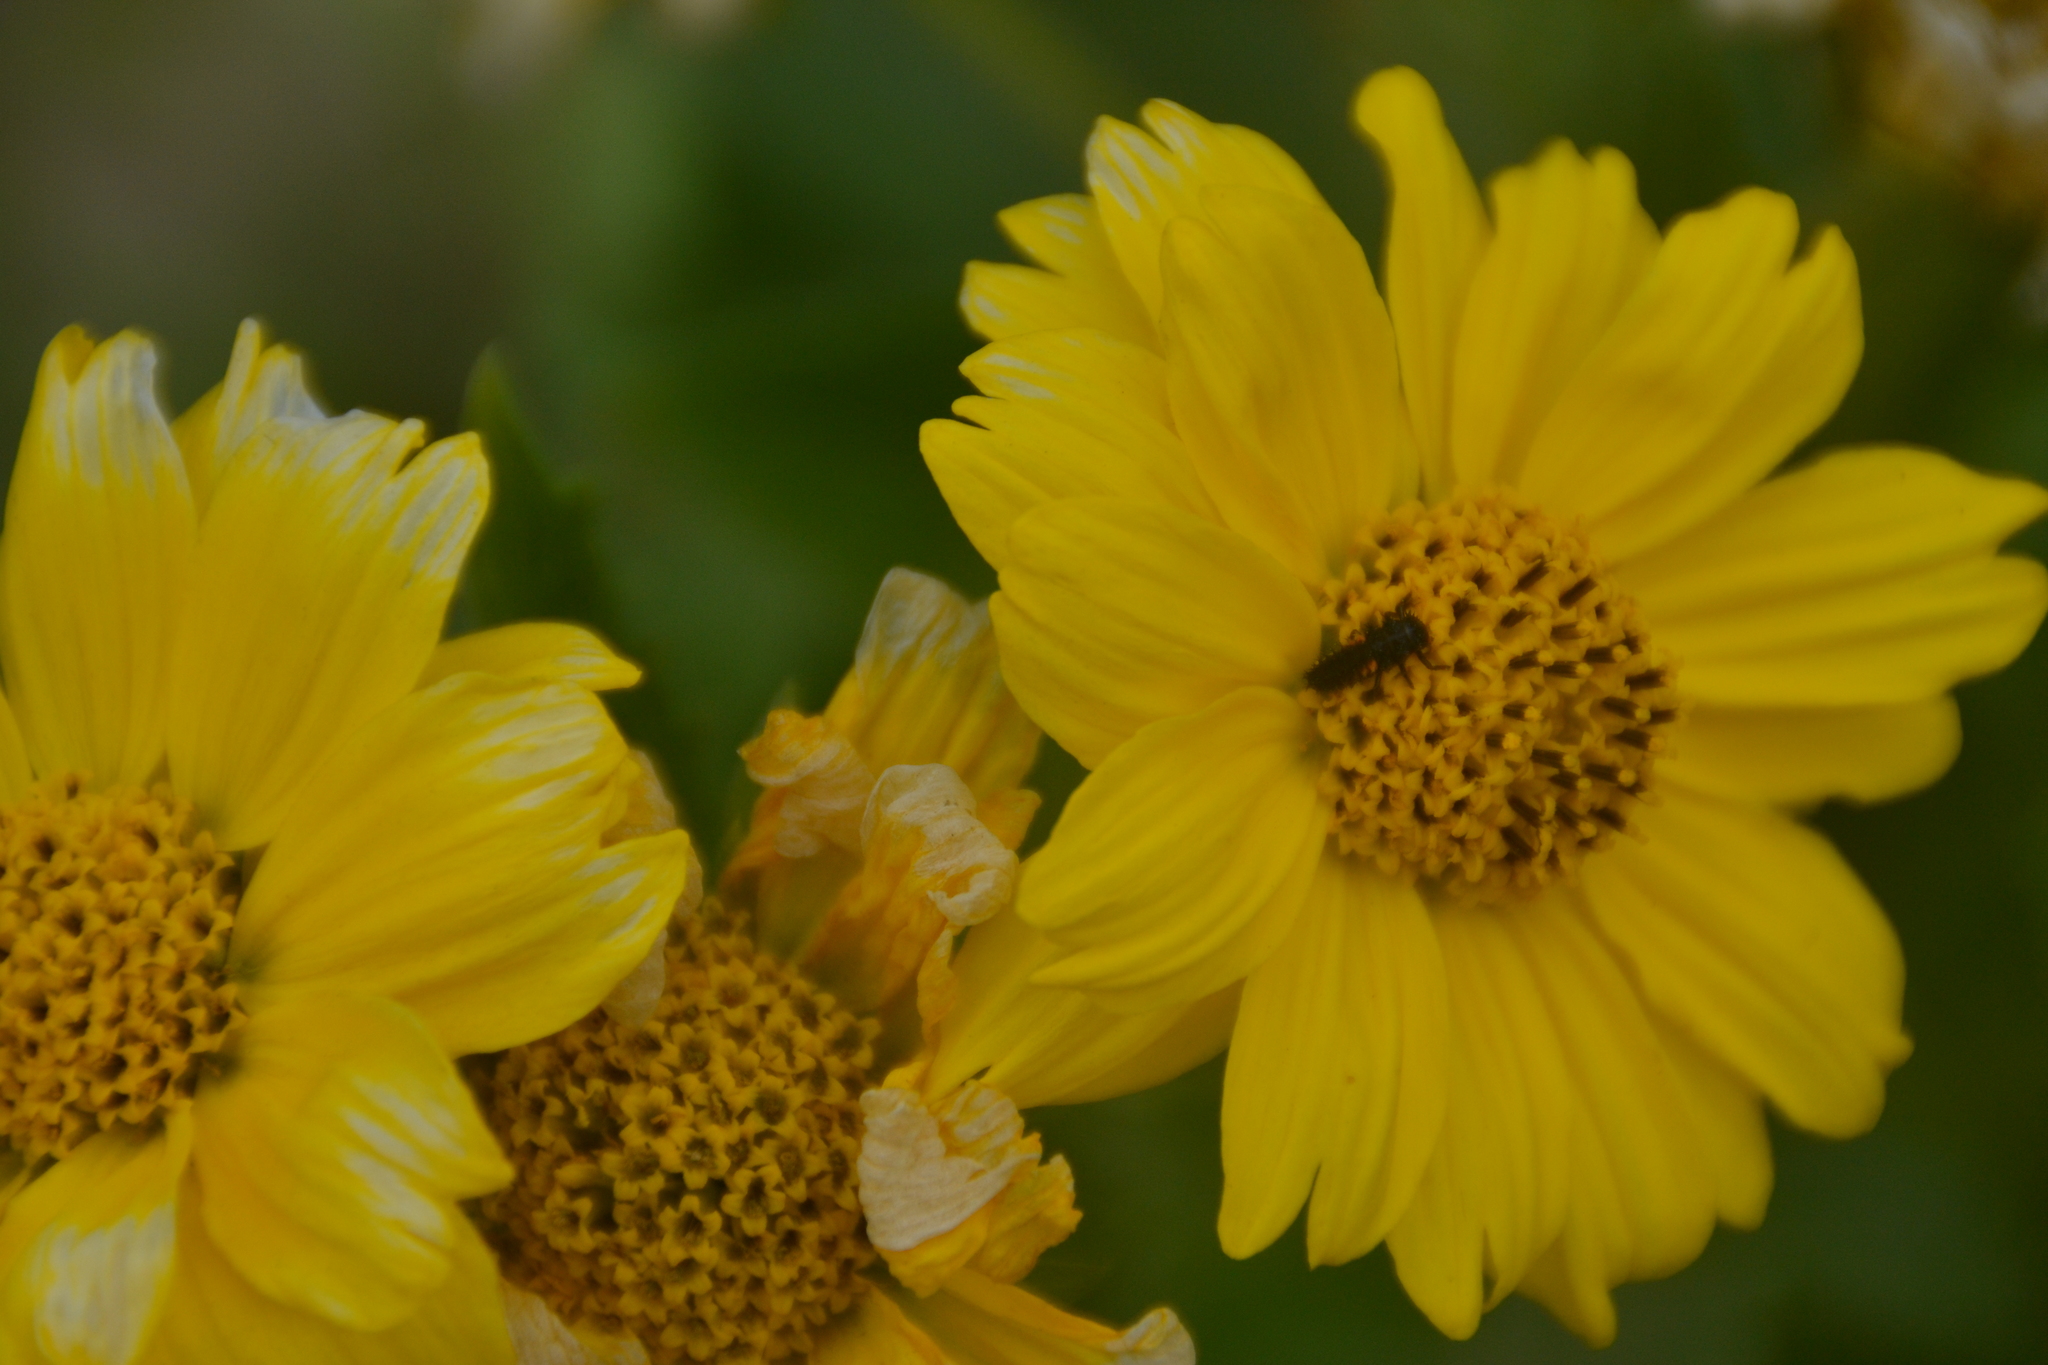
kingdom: Animalia
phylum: Arthropoda
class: Insecta
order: Coleoptera
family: Coccinellidae
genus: Harmonia
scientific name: Harmonia axyridis
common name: Harlequin ladybird
